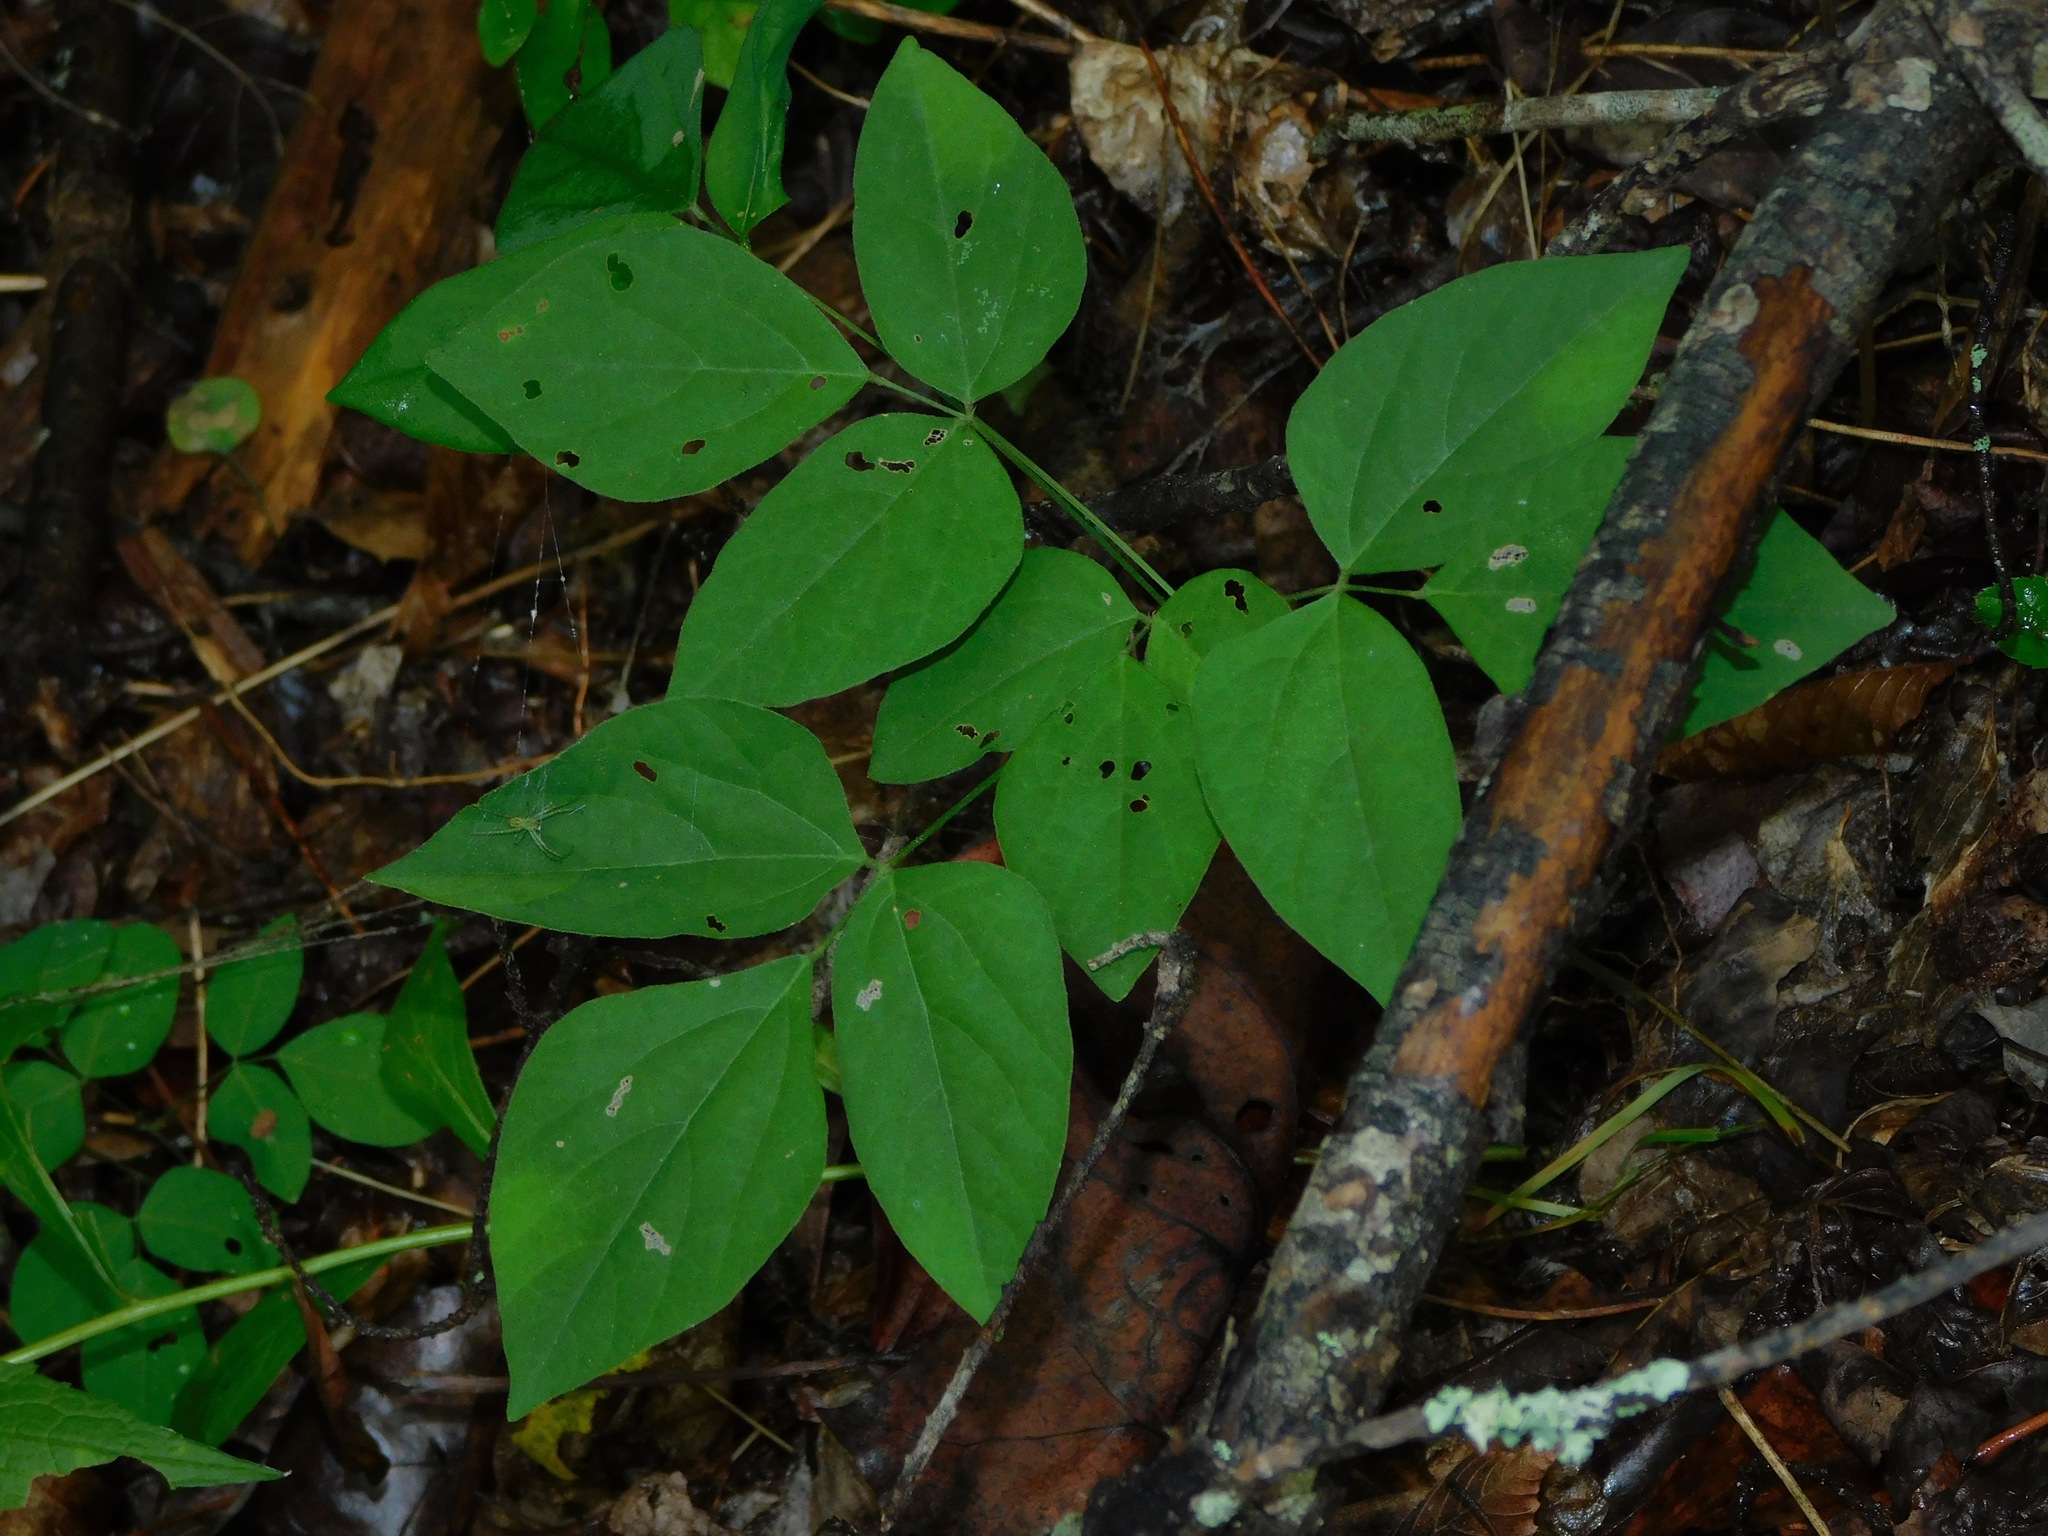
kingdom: Plantae
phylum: Tracheophyta
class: Magnoliopsida
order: Fabales
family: Fabaceae
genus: Hylodesmum
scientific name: Hylodesmum nudiflorum
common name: Bare-stemmed tick-trefoil
